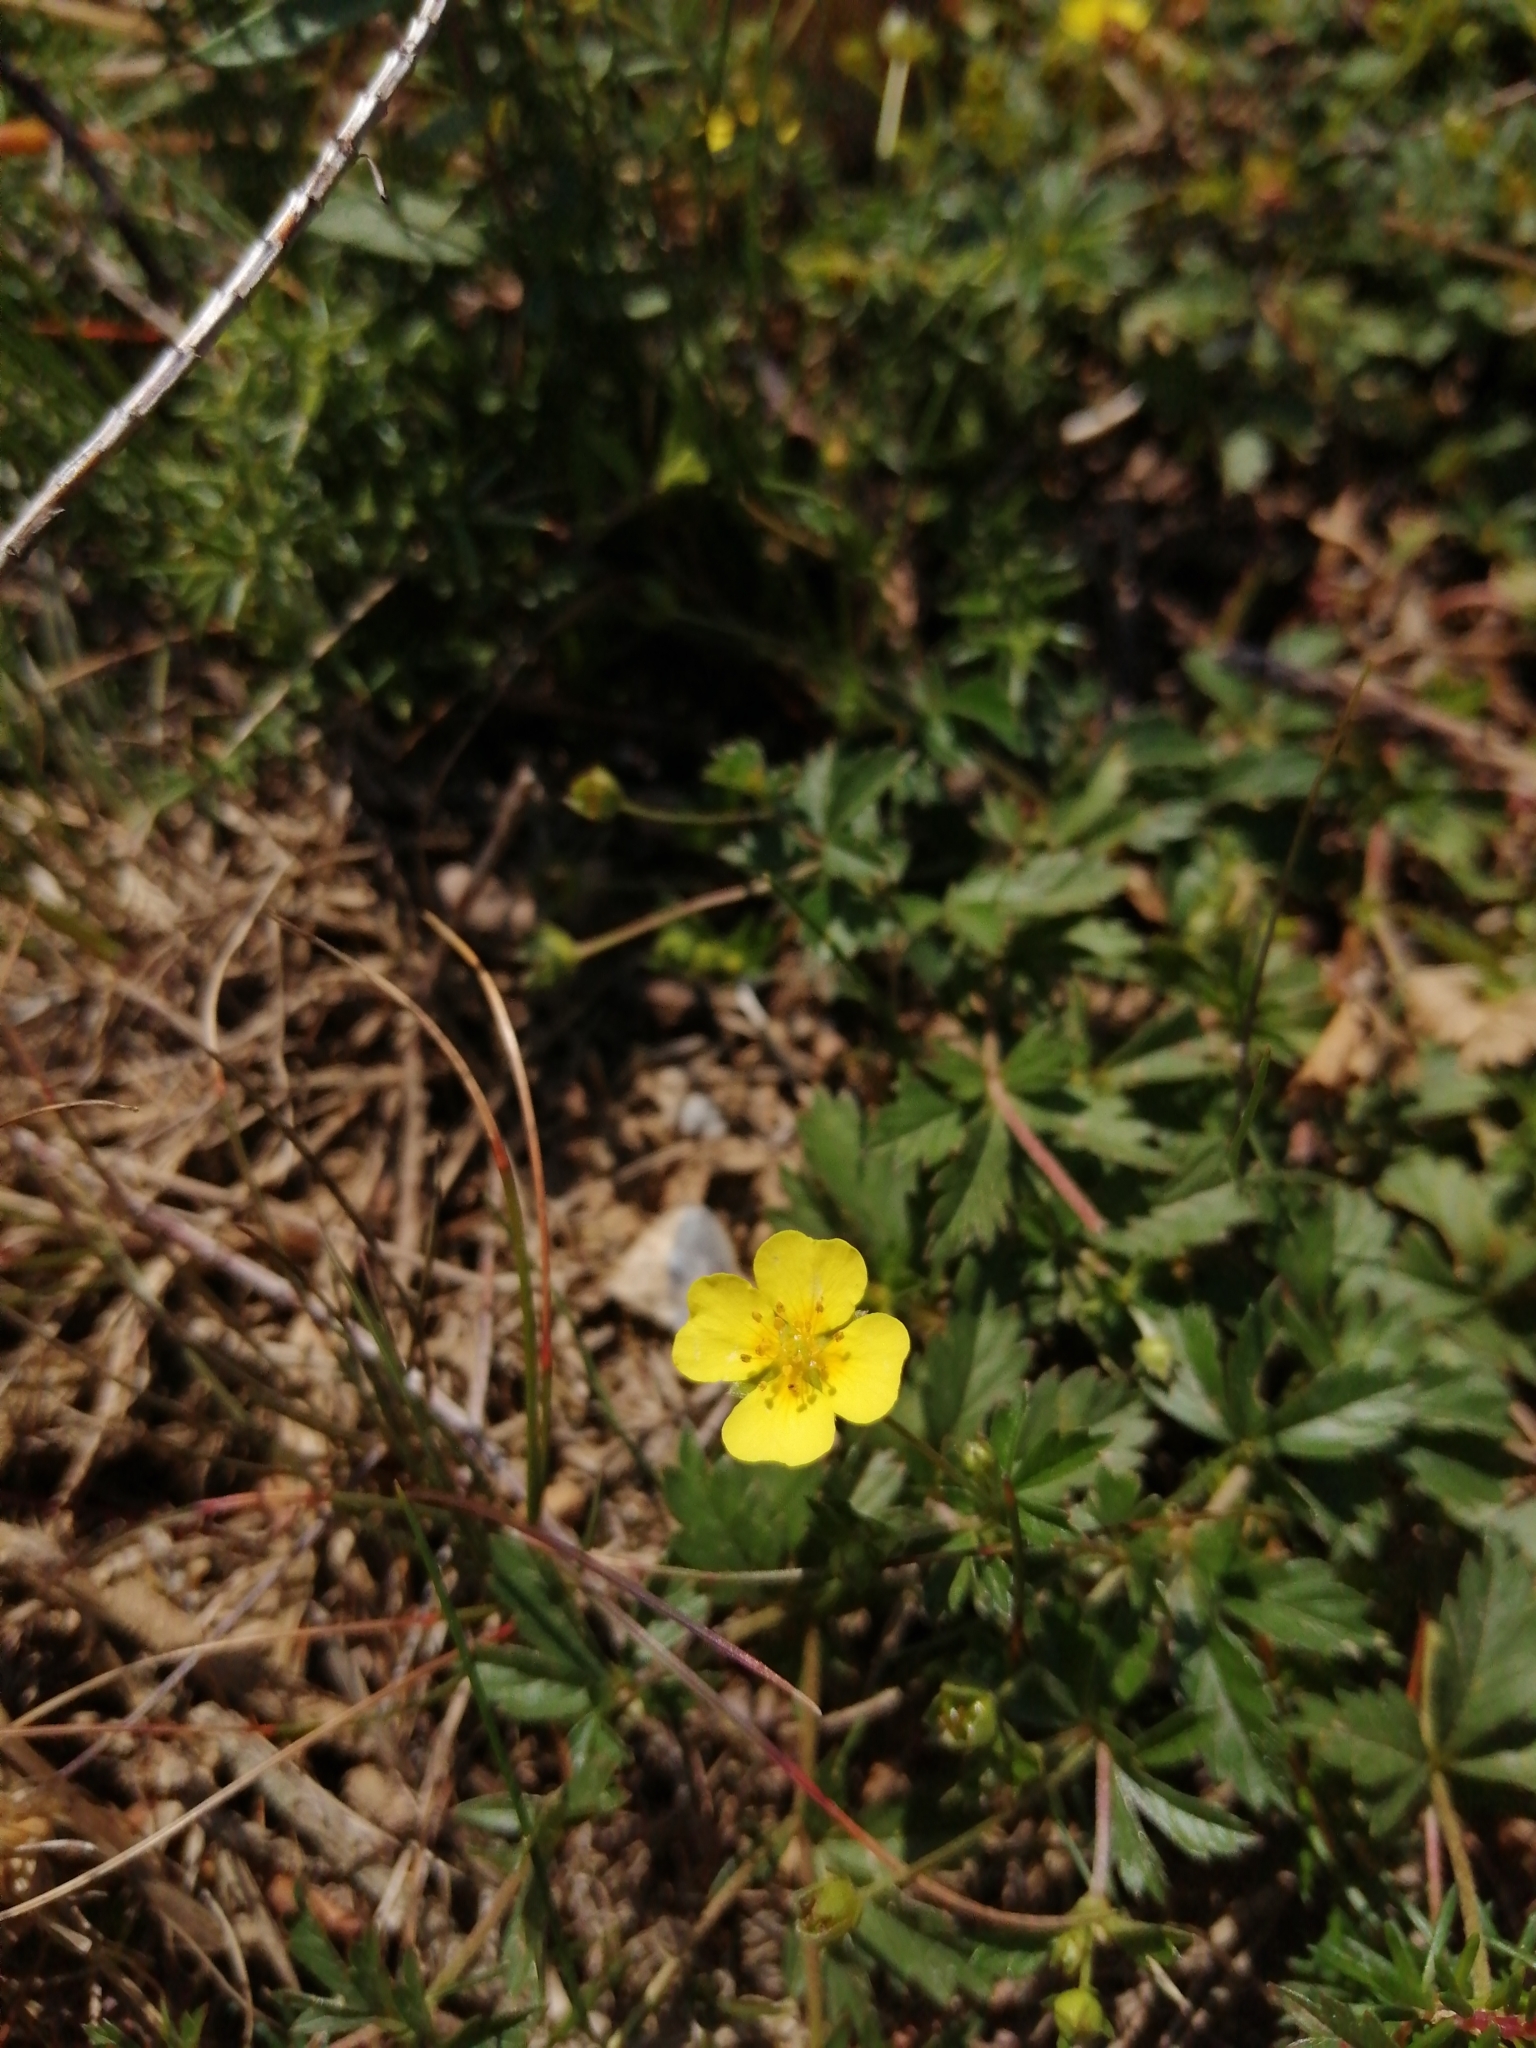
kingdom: Plantae
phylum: Tracheophyta
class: Magnoliopsida
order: Rosales
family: Rosaceae
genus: Potentilla
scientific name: Potentilla erecta
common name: Tormentil
